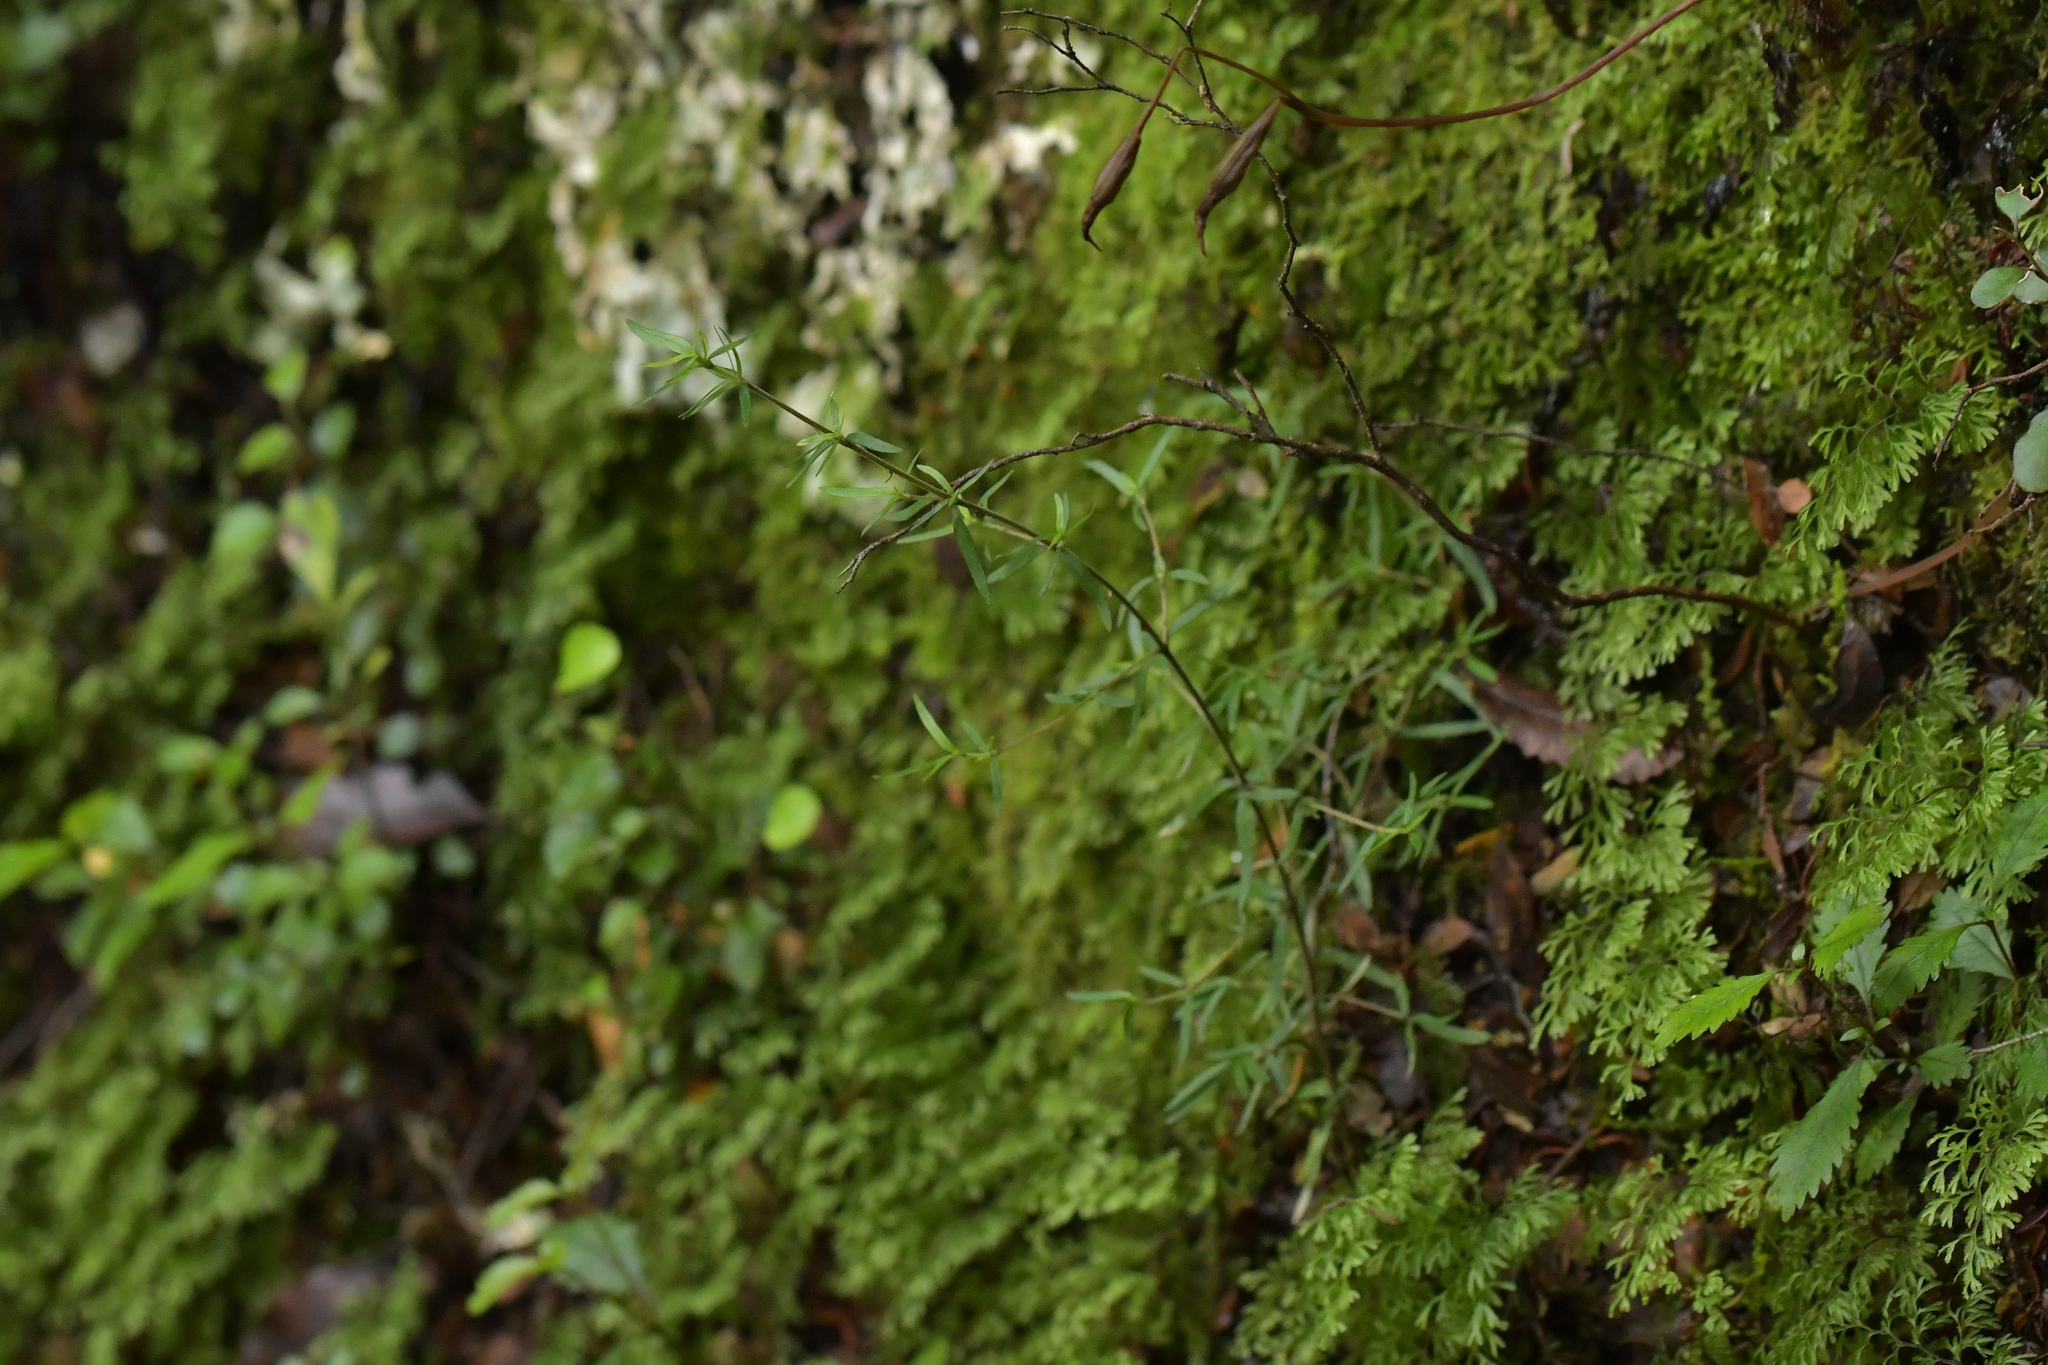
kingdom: Plantae
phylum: Tracheophyta
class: Magnoliopsida
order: Gentianales
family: Rubiaceae
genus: Coprosma
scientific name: Coprosma linariifolia
